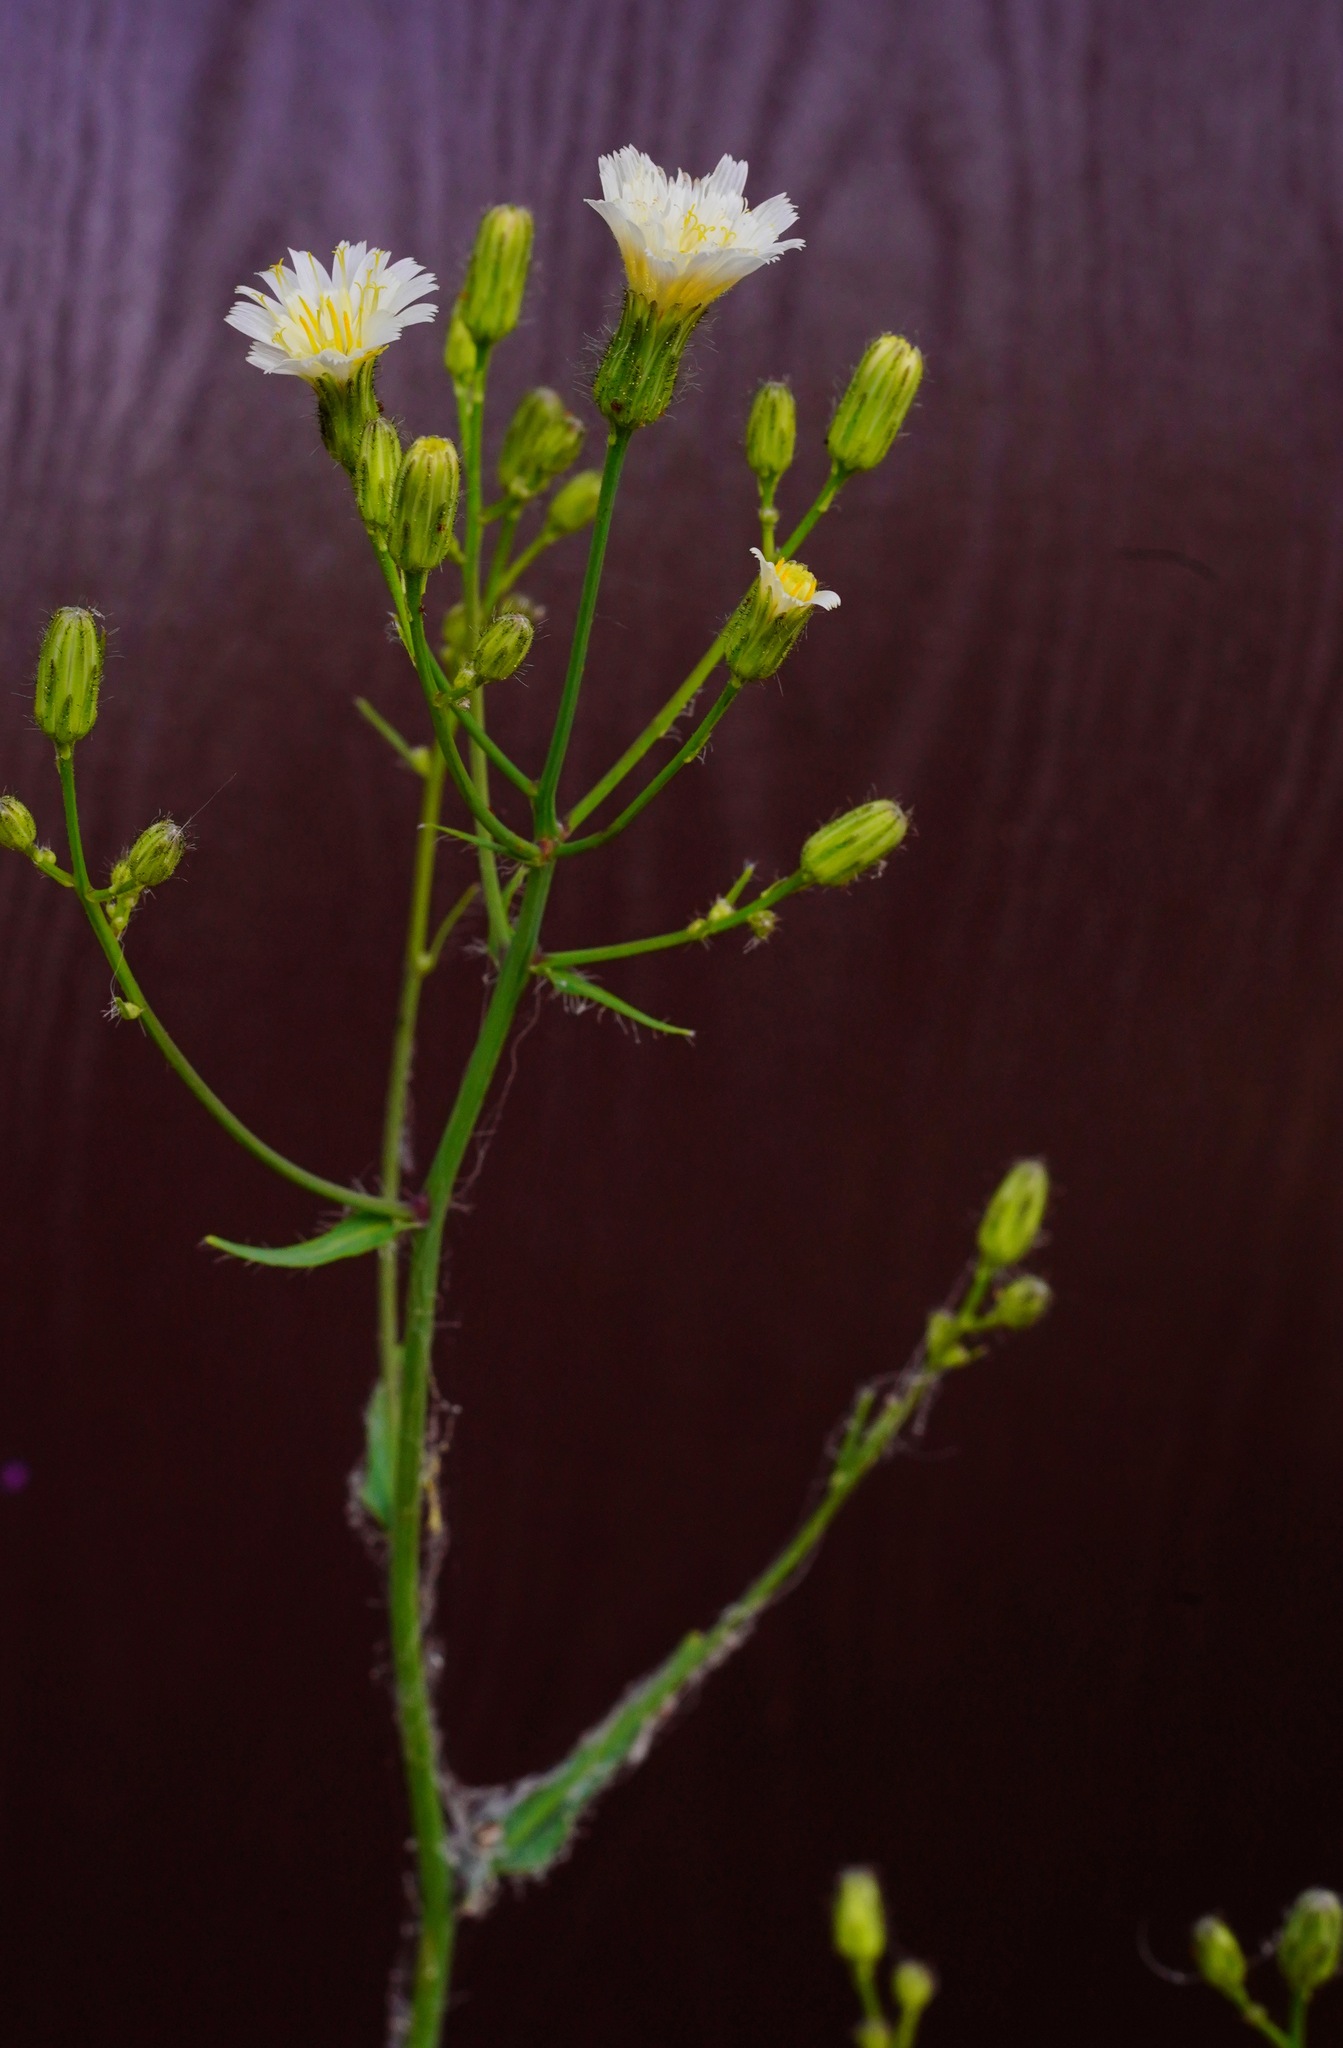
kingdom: Plantae
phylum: Tracheophyta
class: Magnoliopsida
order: Asterales
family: Asteraceae
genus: Hieracium
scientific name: Hieracium albiflorum
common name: White hawkweed
